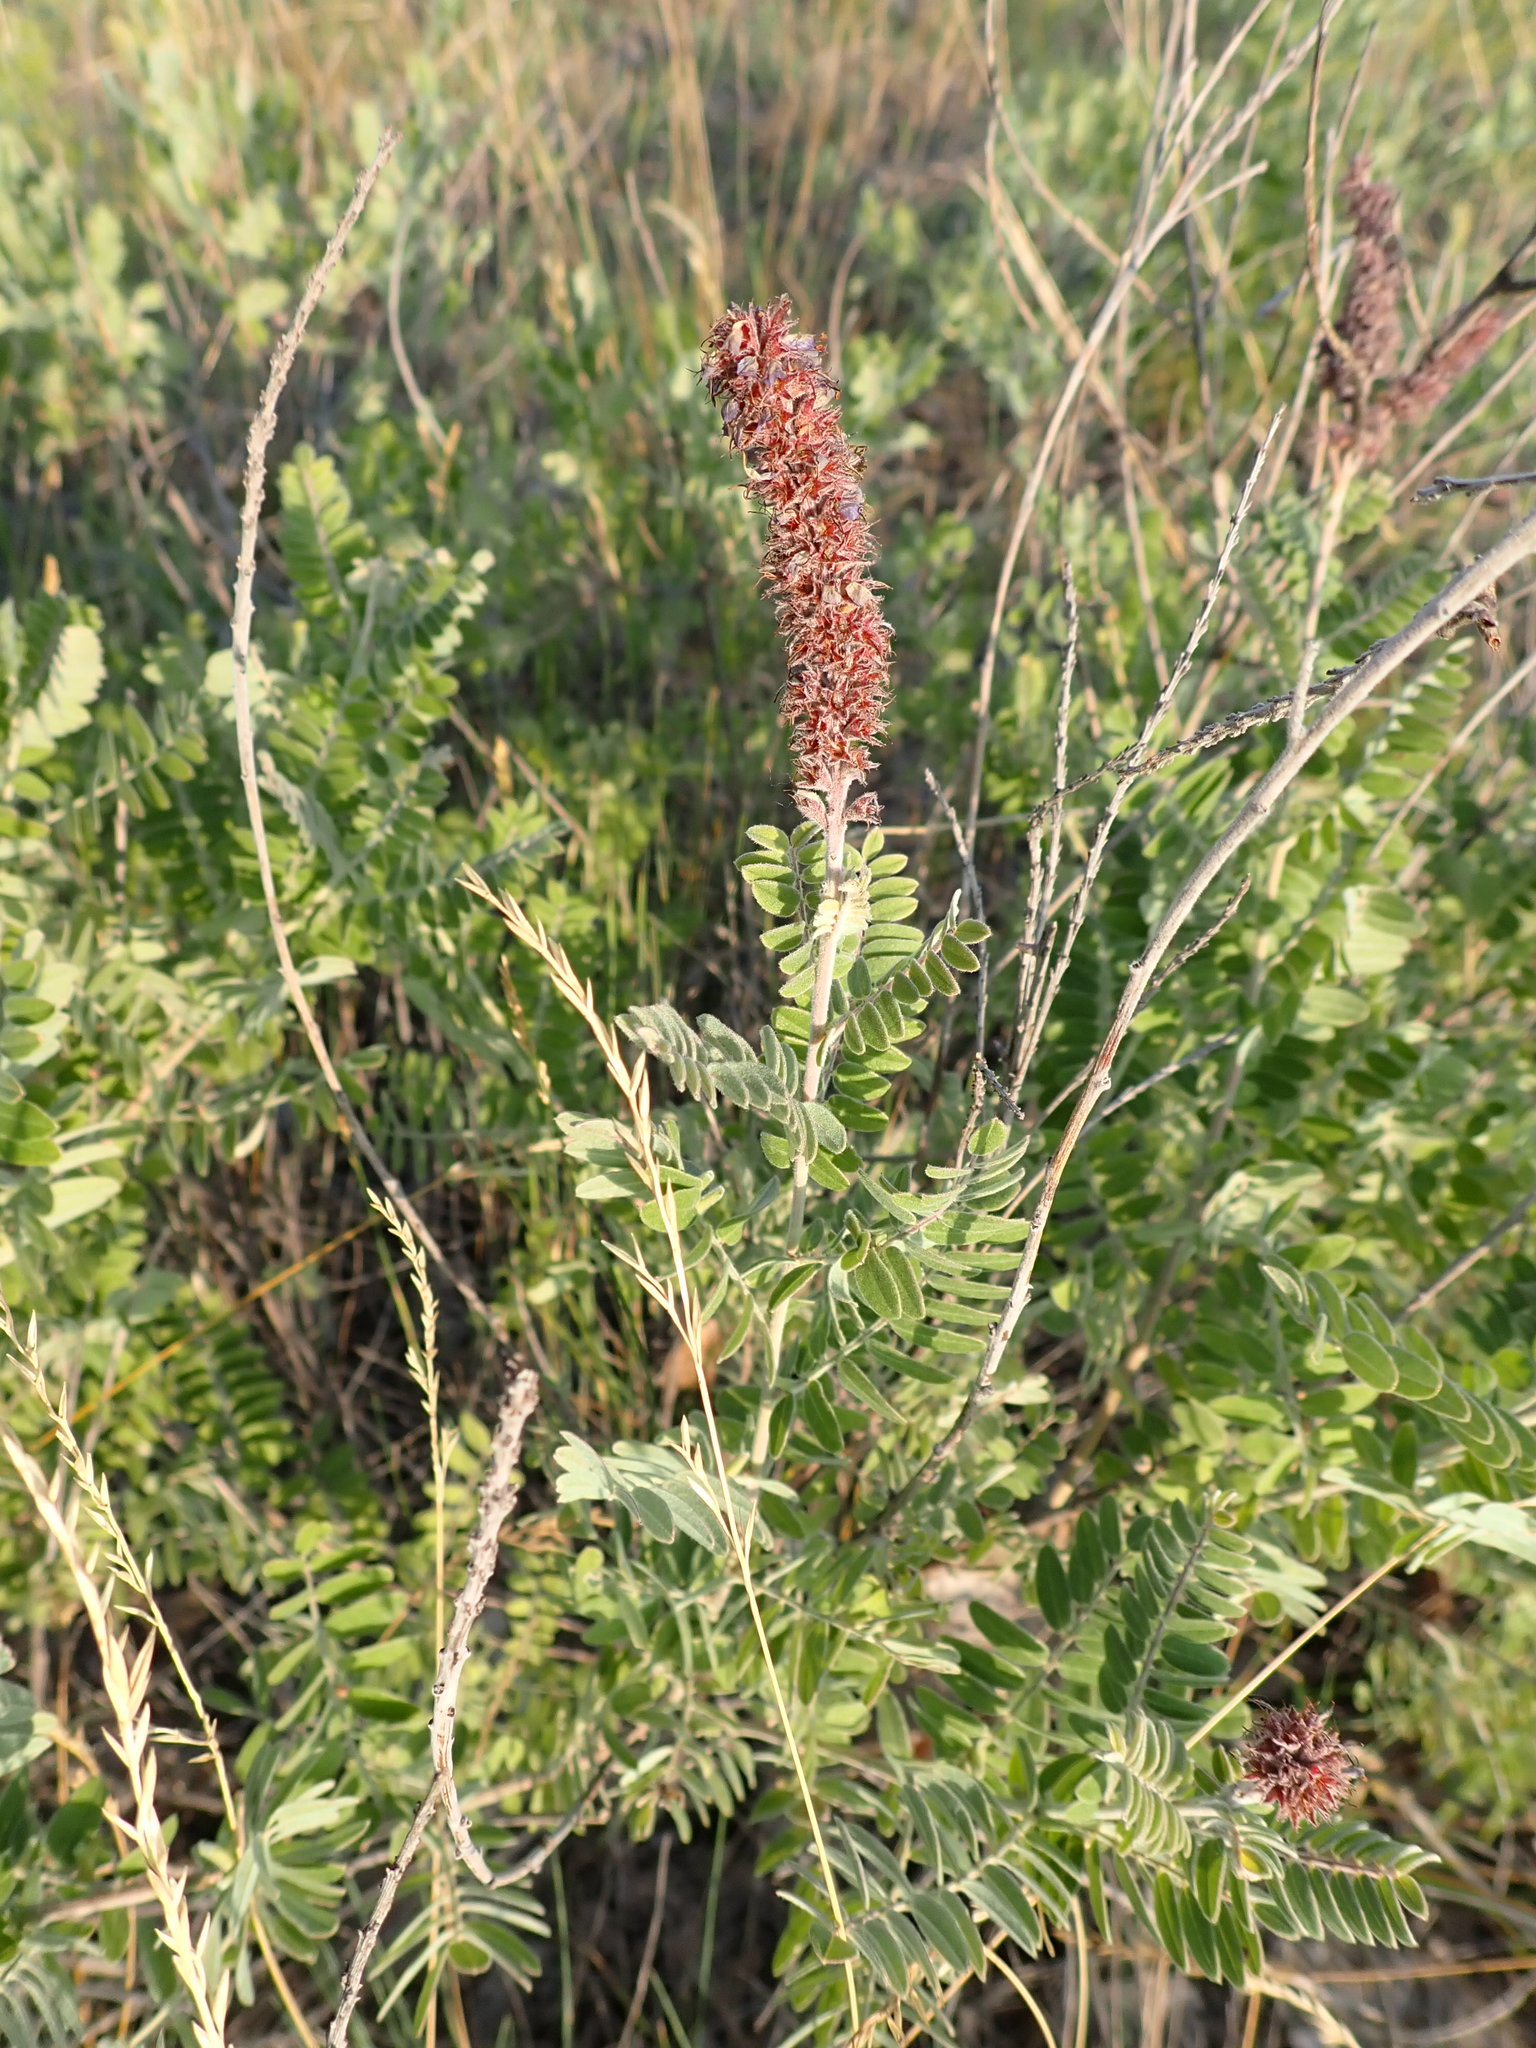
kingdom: Plantae
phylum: Tracheophyta
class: Magnoliopsida
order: Fabales
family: Fabaceae
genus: Amorpha
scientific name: Amorpha canescens
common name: Leadplant
